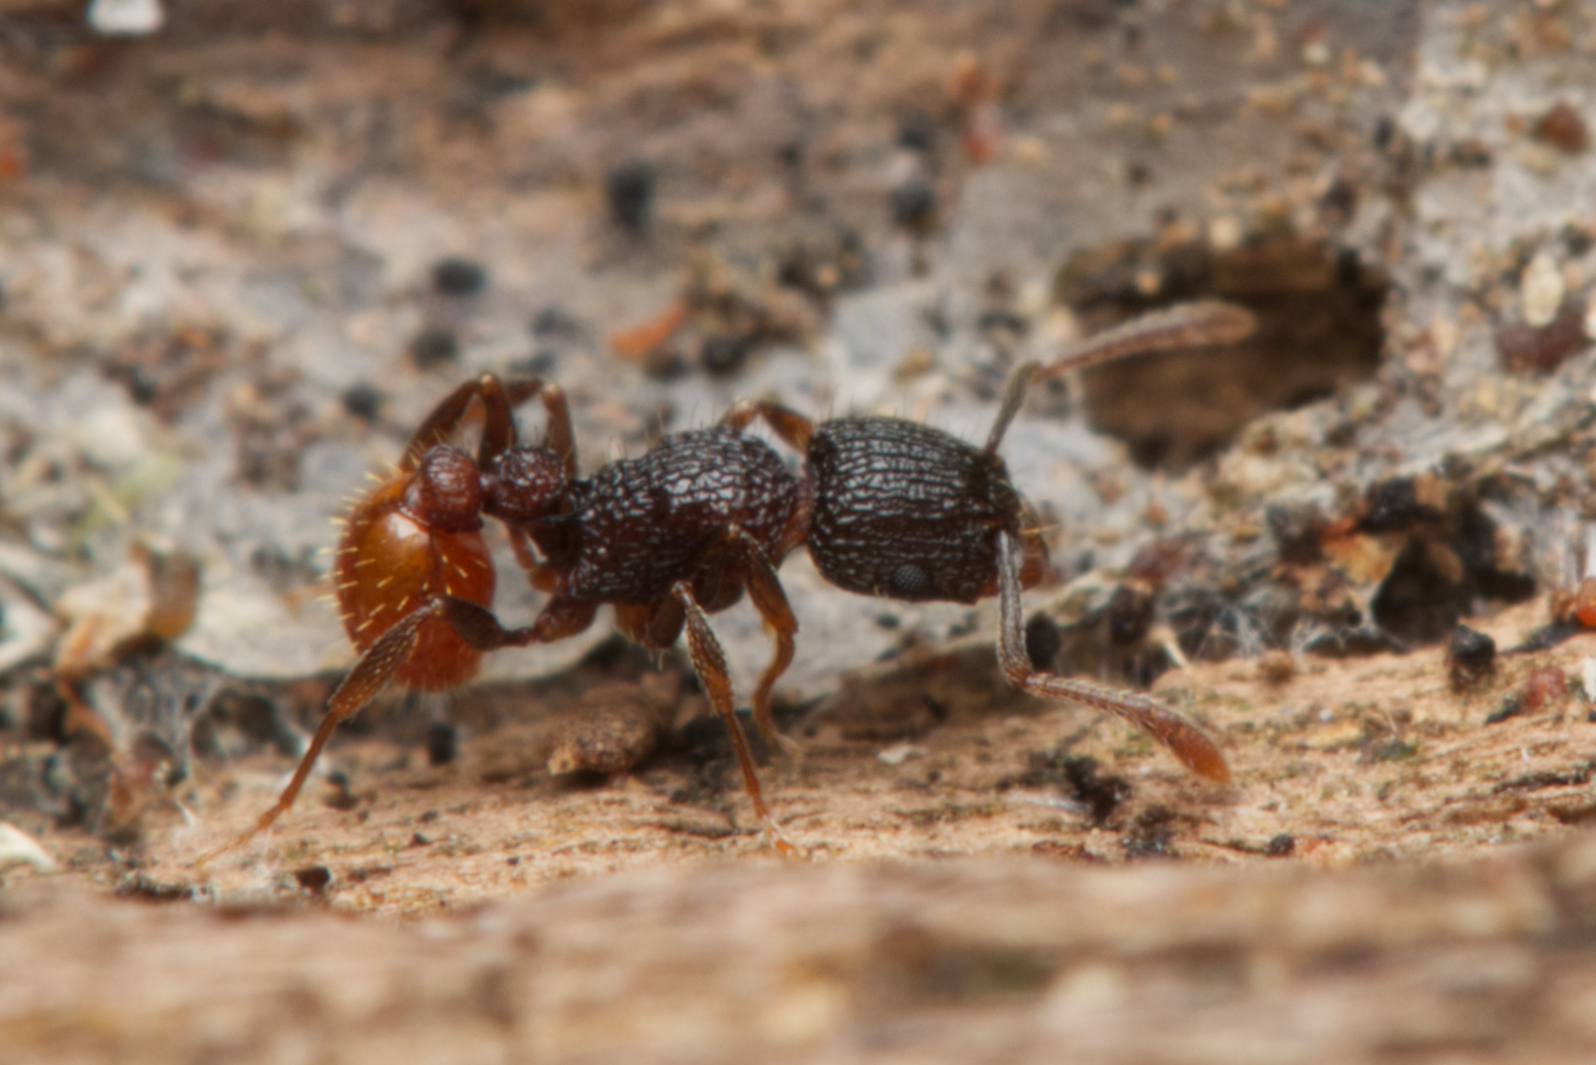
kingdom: Animalia
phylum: Arthropoda
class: Insecta
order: Hymenoptera
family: Formicidae
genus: Tetramorium
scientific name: Tetramorium impressum
